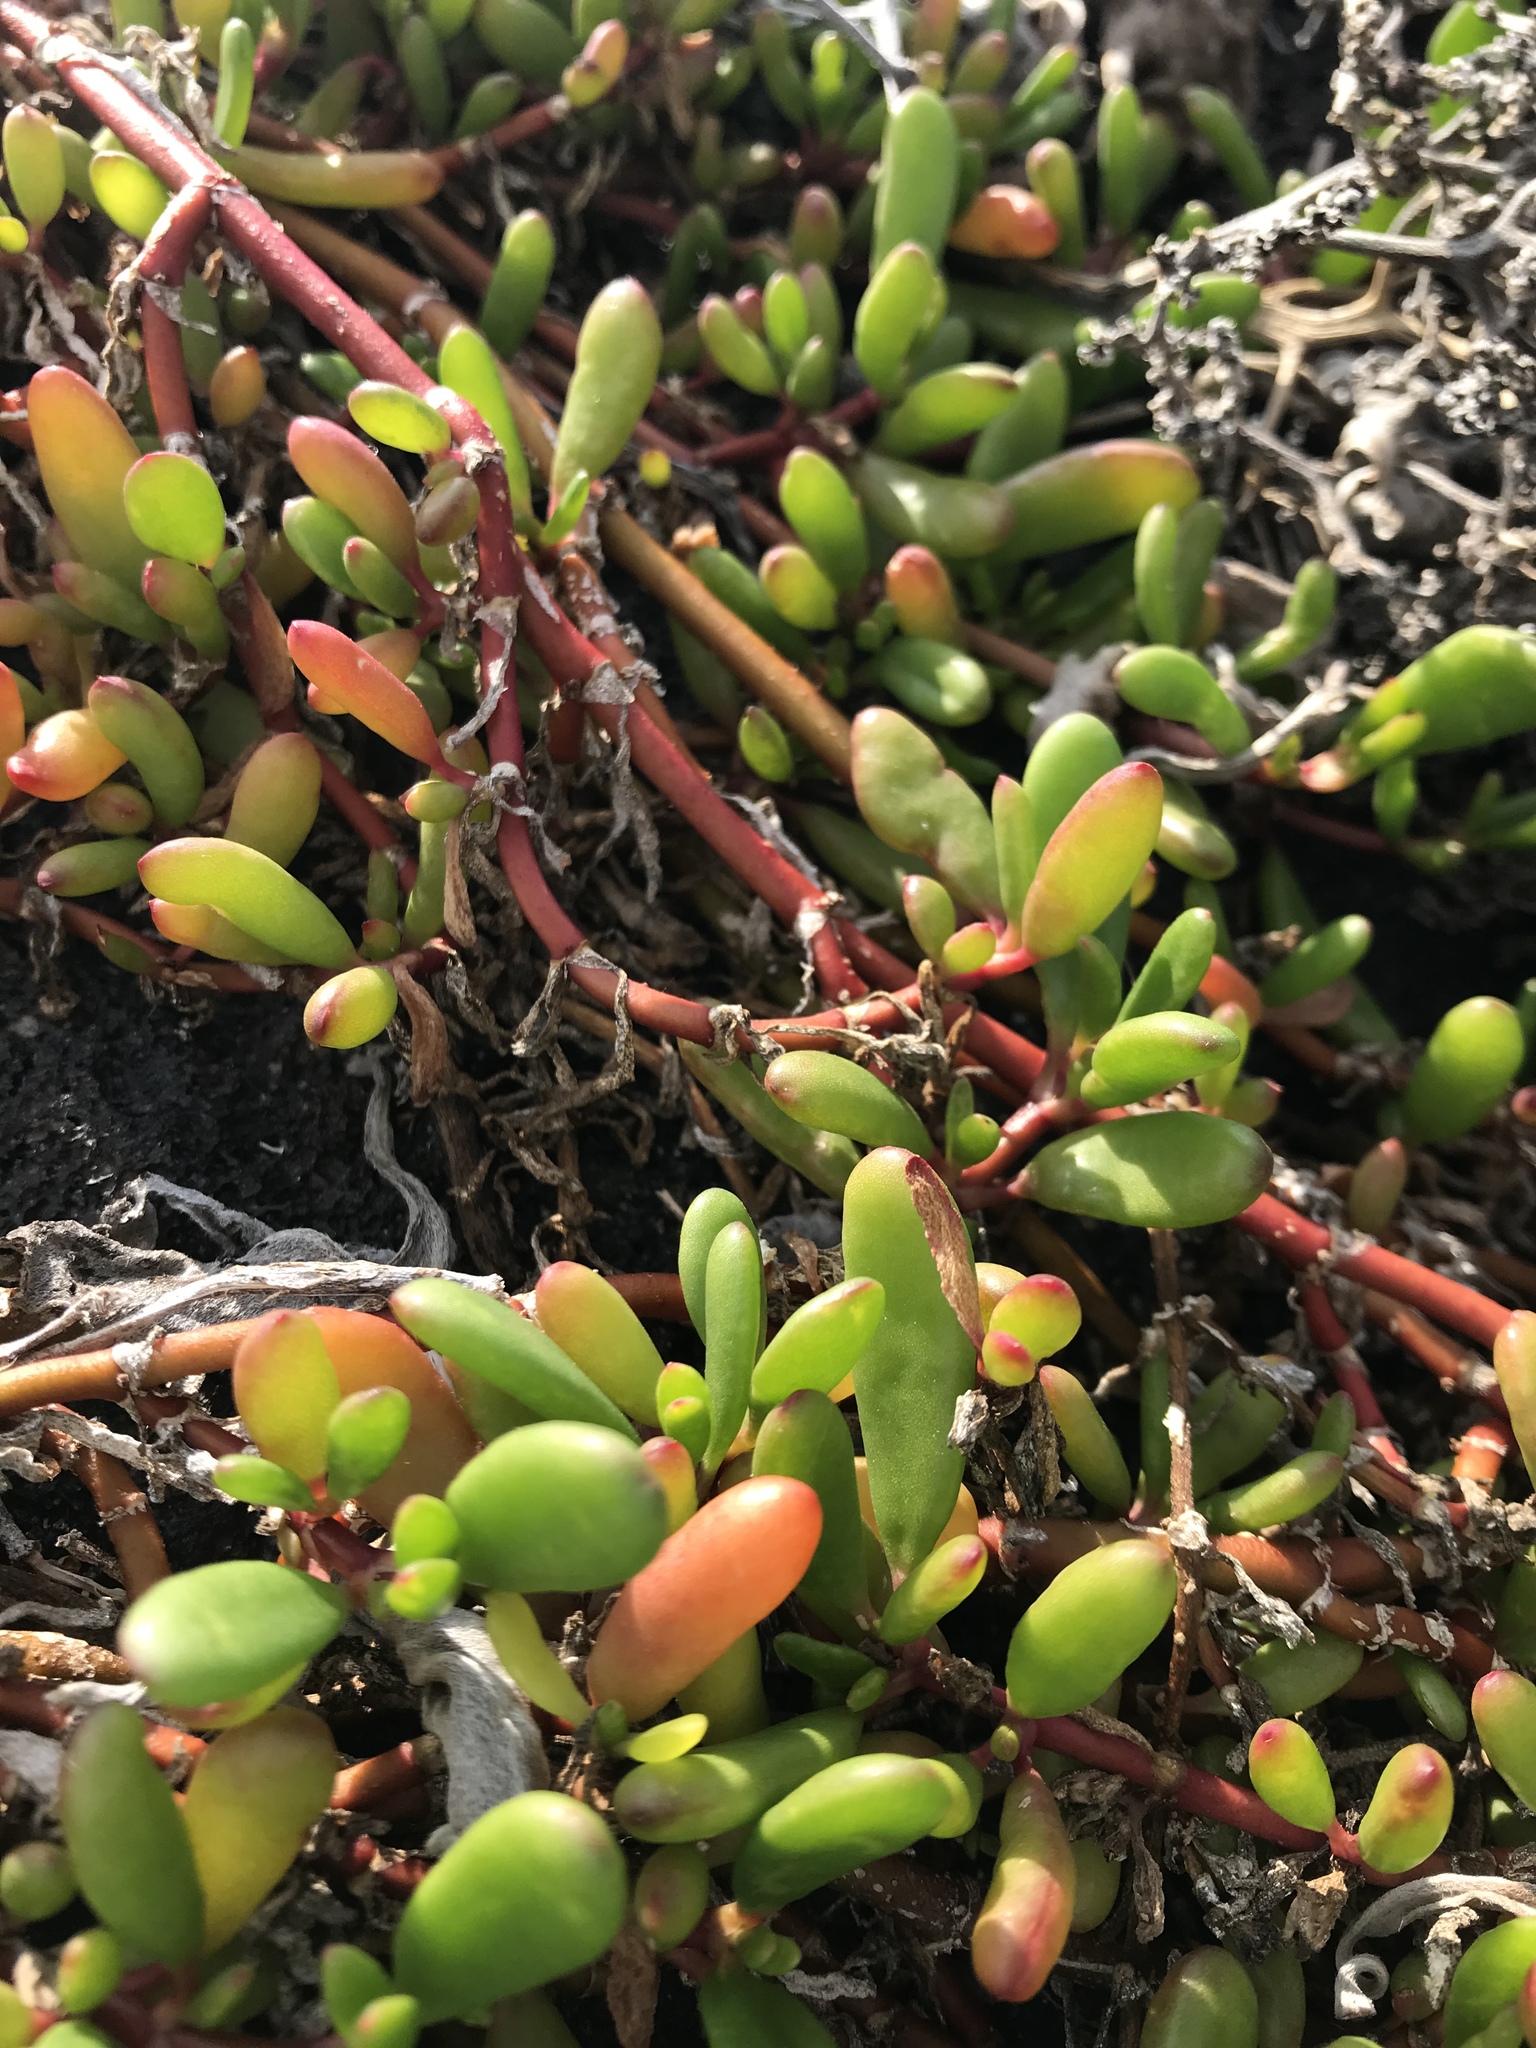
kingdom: Plantae
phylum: Tracheophyta
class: Magnoliopsida
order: Caryophyllales
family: Aizoaceae
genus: Sesuvium
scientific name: Sesuvium portulacastrum
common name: Sea-purslane
